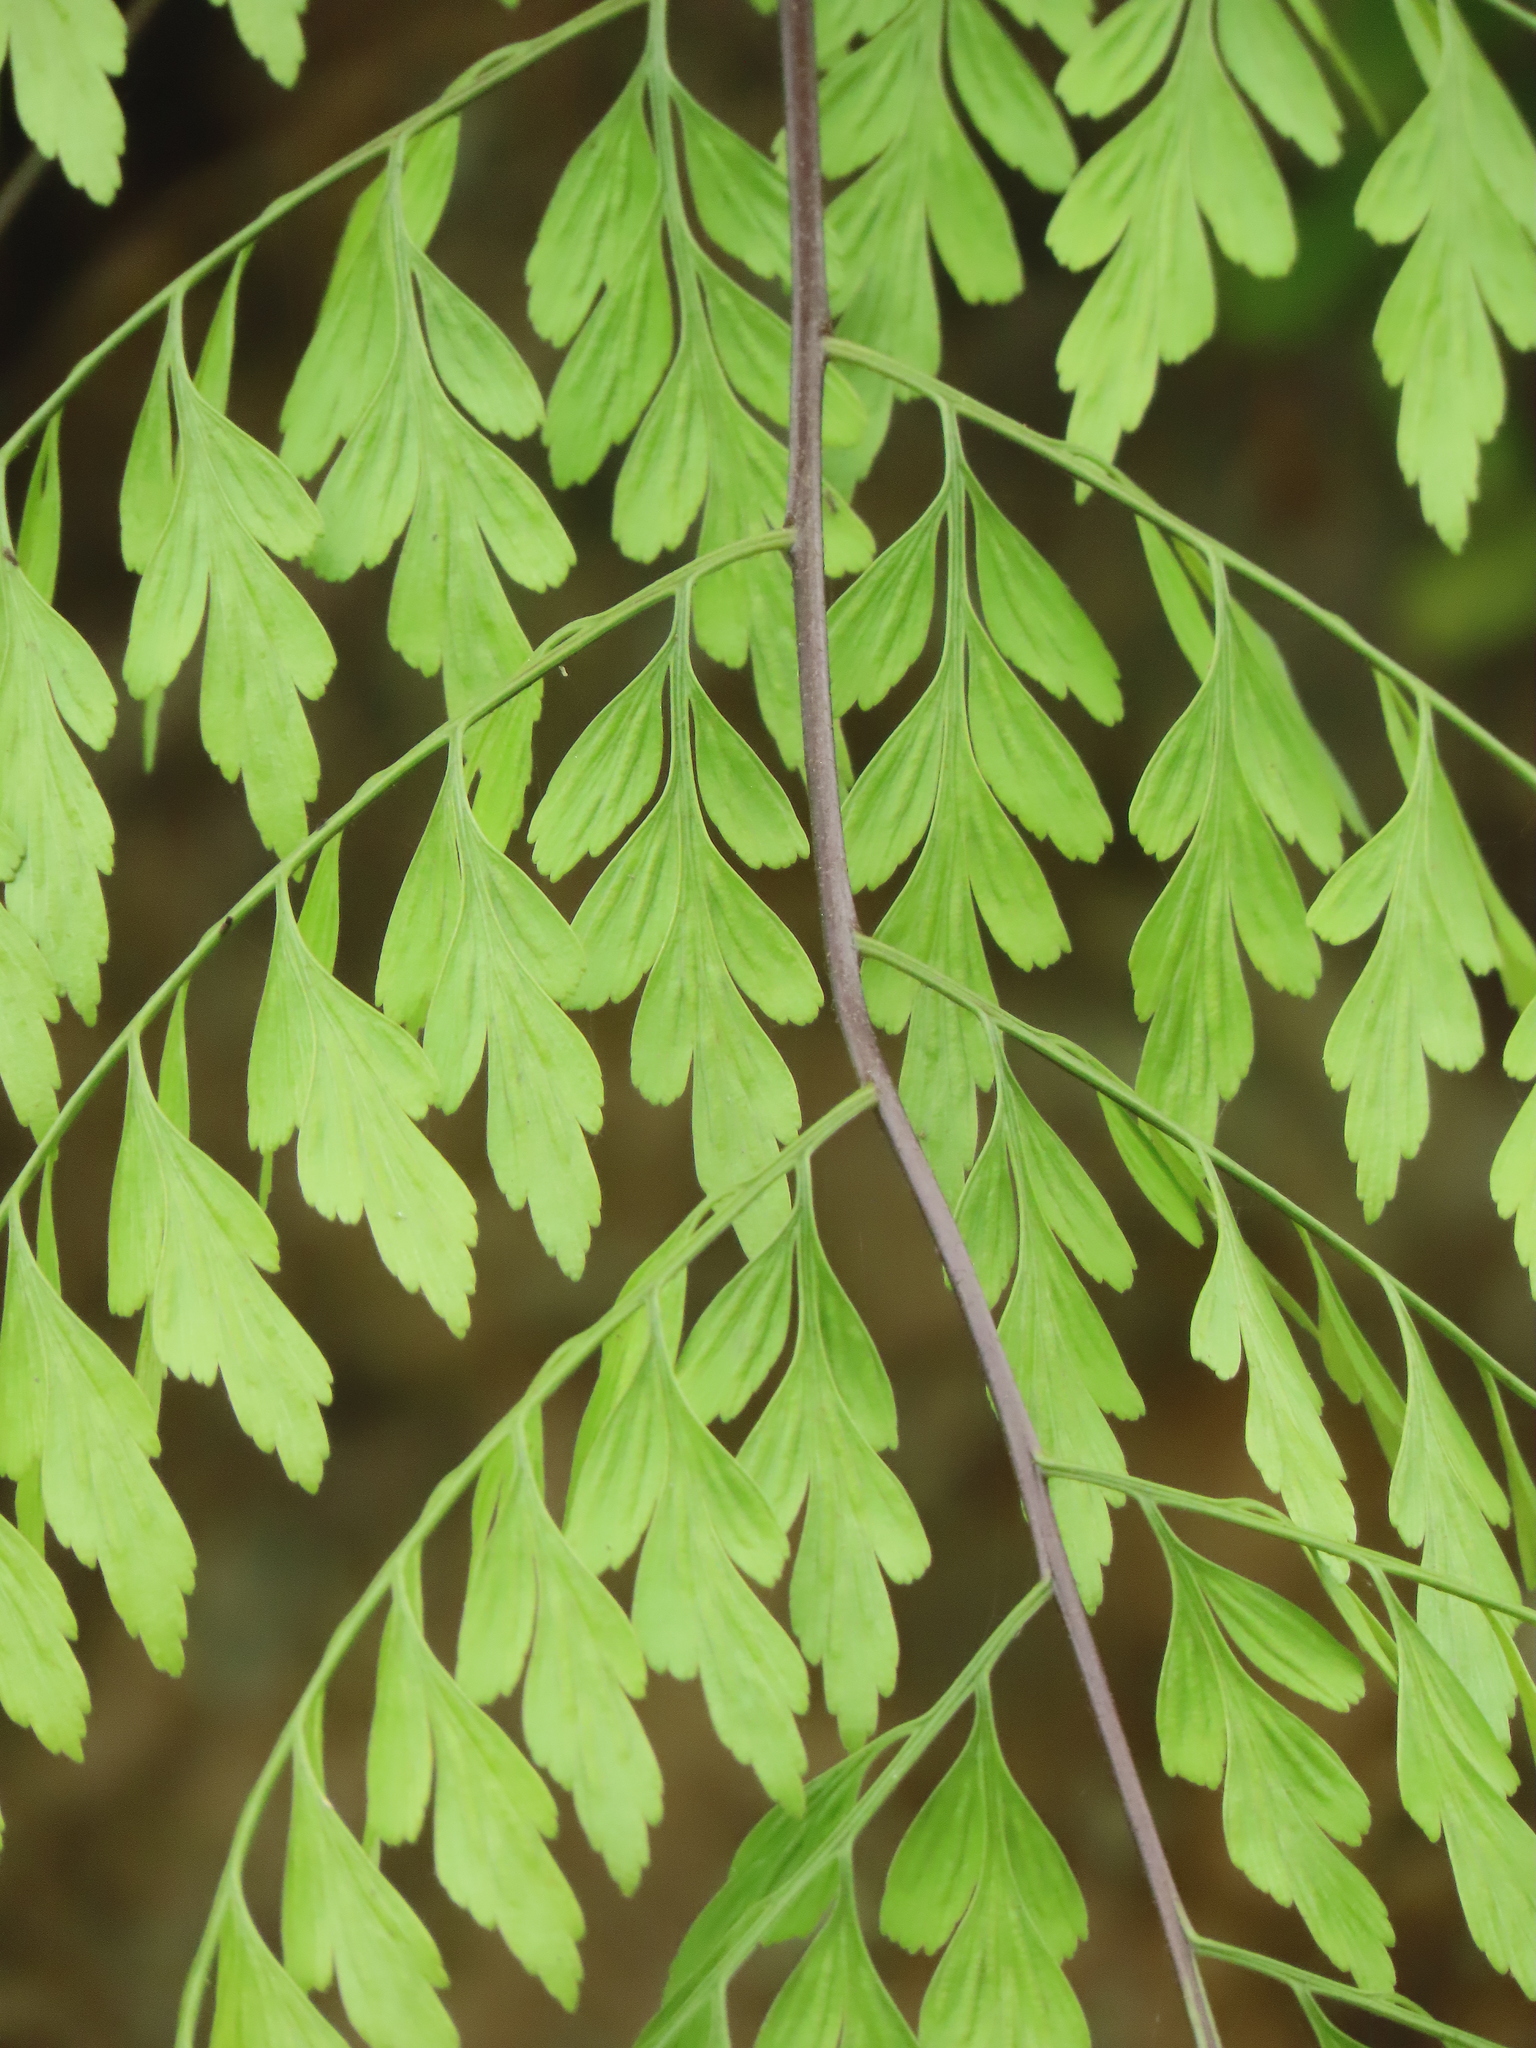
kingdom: Plantae
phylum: Tracheophyta
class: Polypodiopsida
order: Polypodiales
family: Aspleniaceae
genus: Asplenium
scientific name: Asplenium pseudolaserpitiifolium
